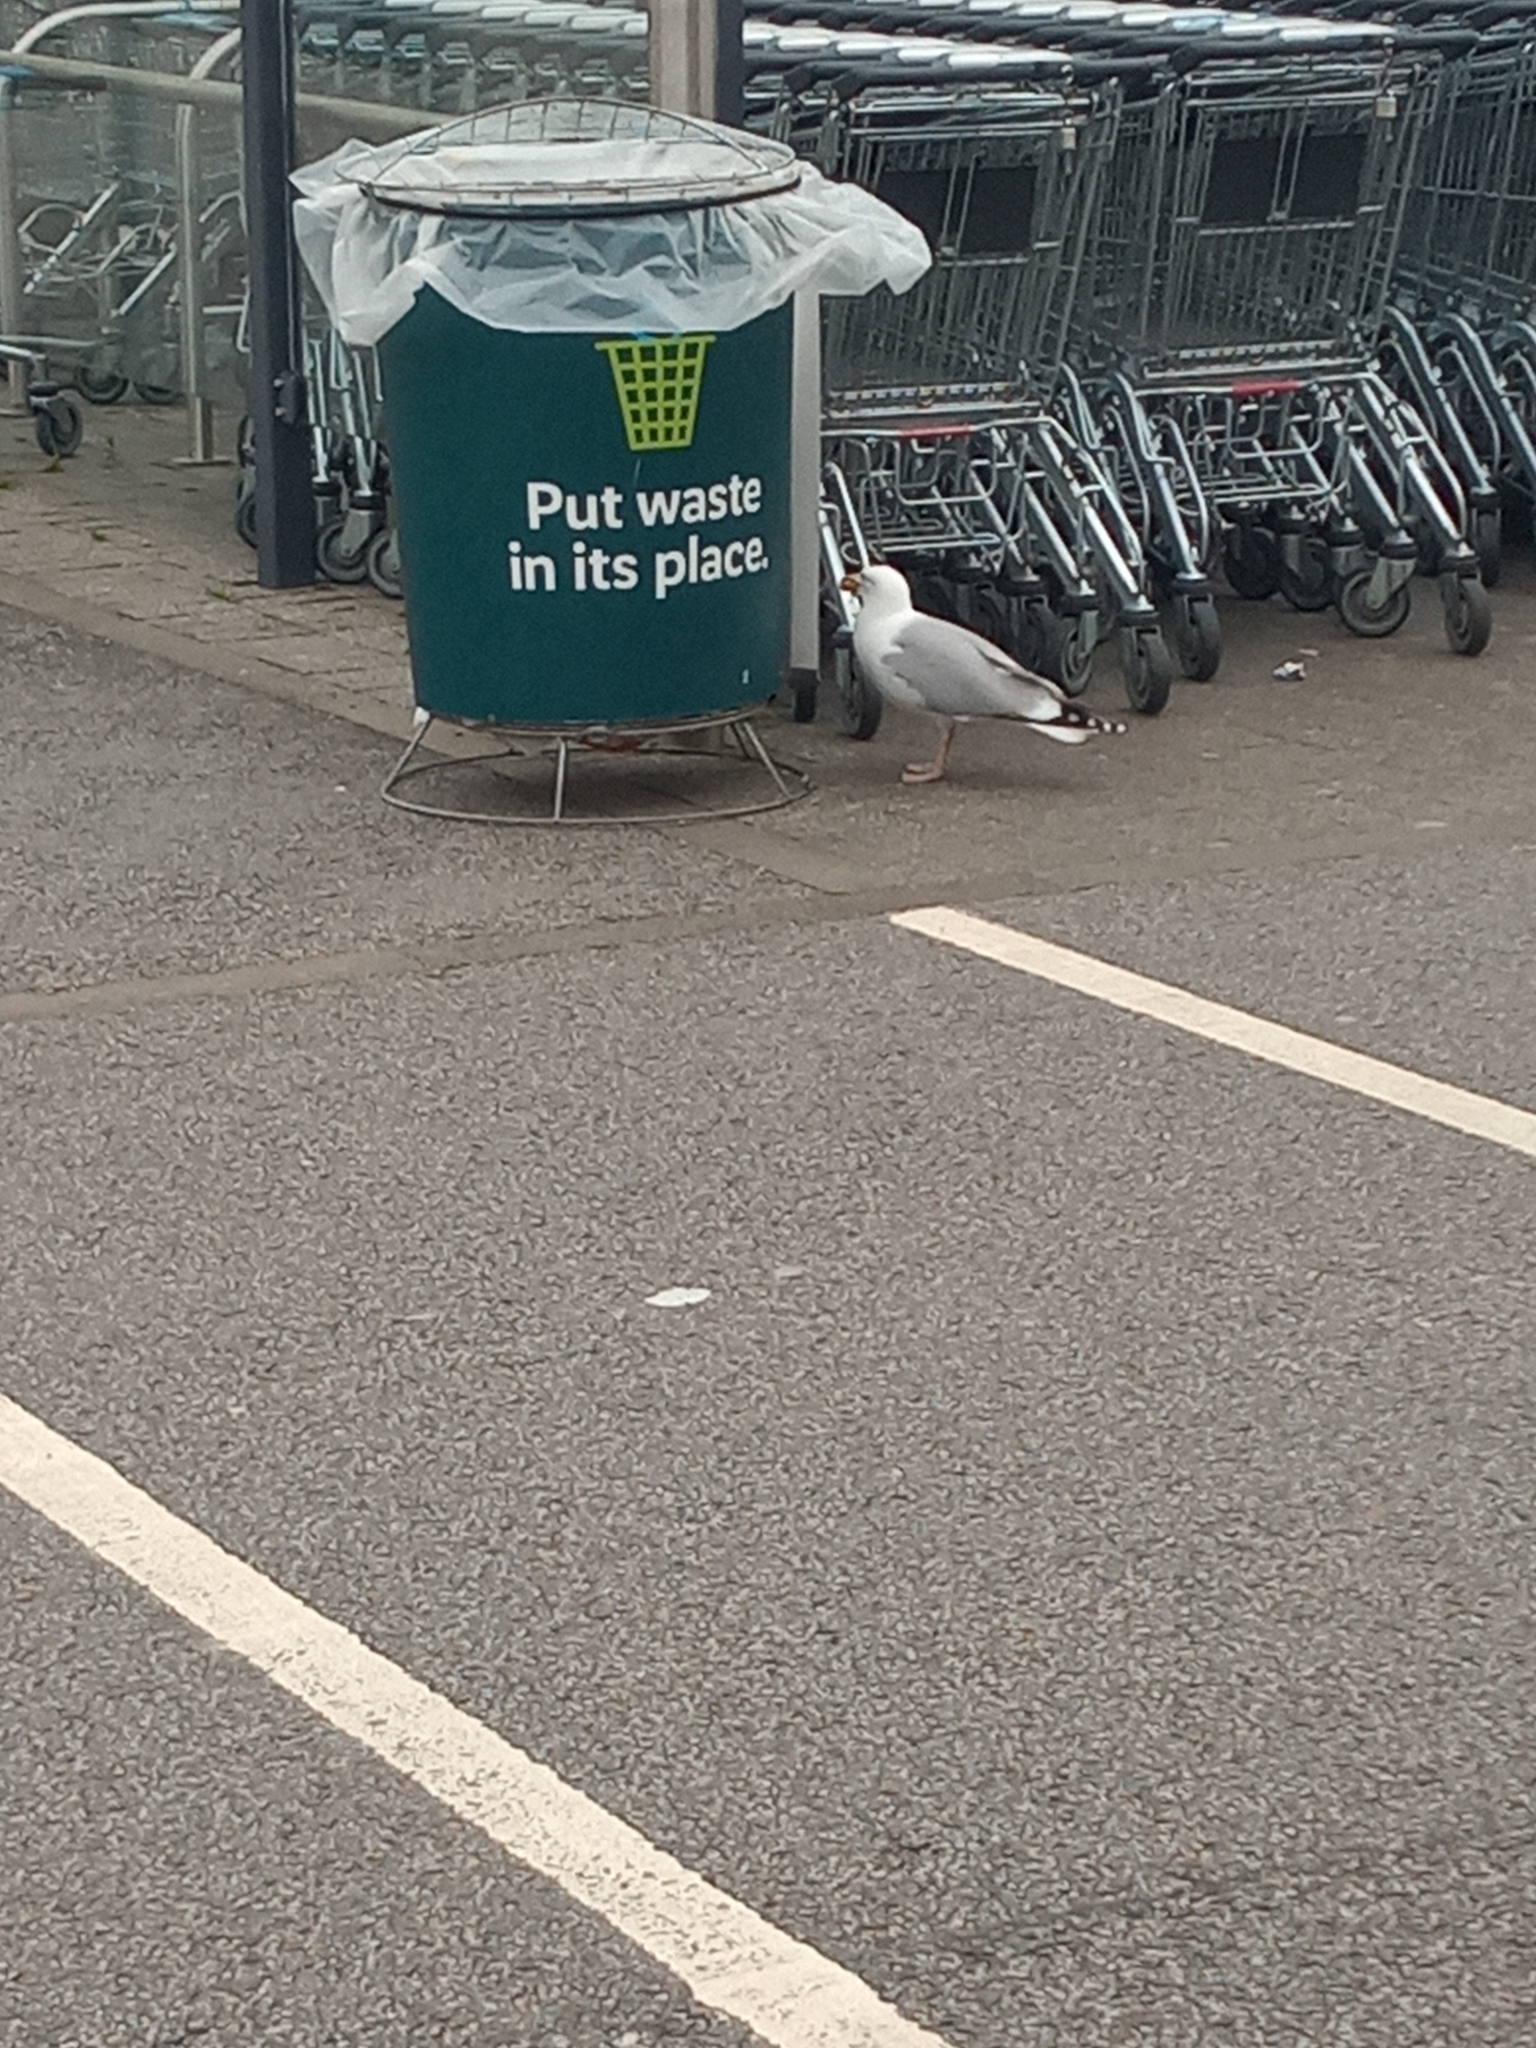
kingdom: Animalia
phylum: Chordata
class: Aves
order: Charadriiformes
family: Laridae
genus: Larus
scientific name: Larus argentatus
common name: Herring gull
